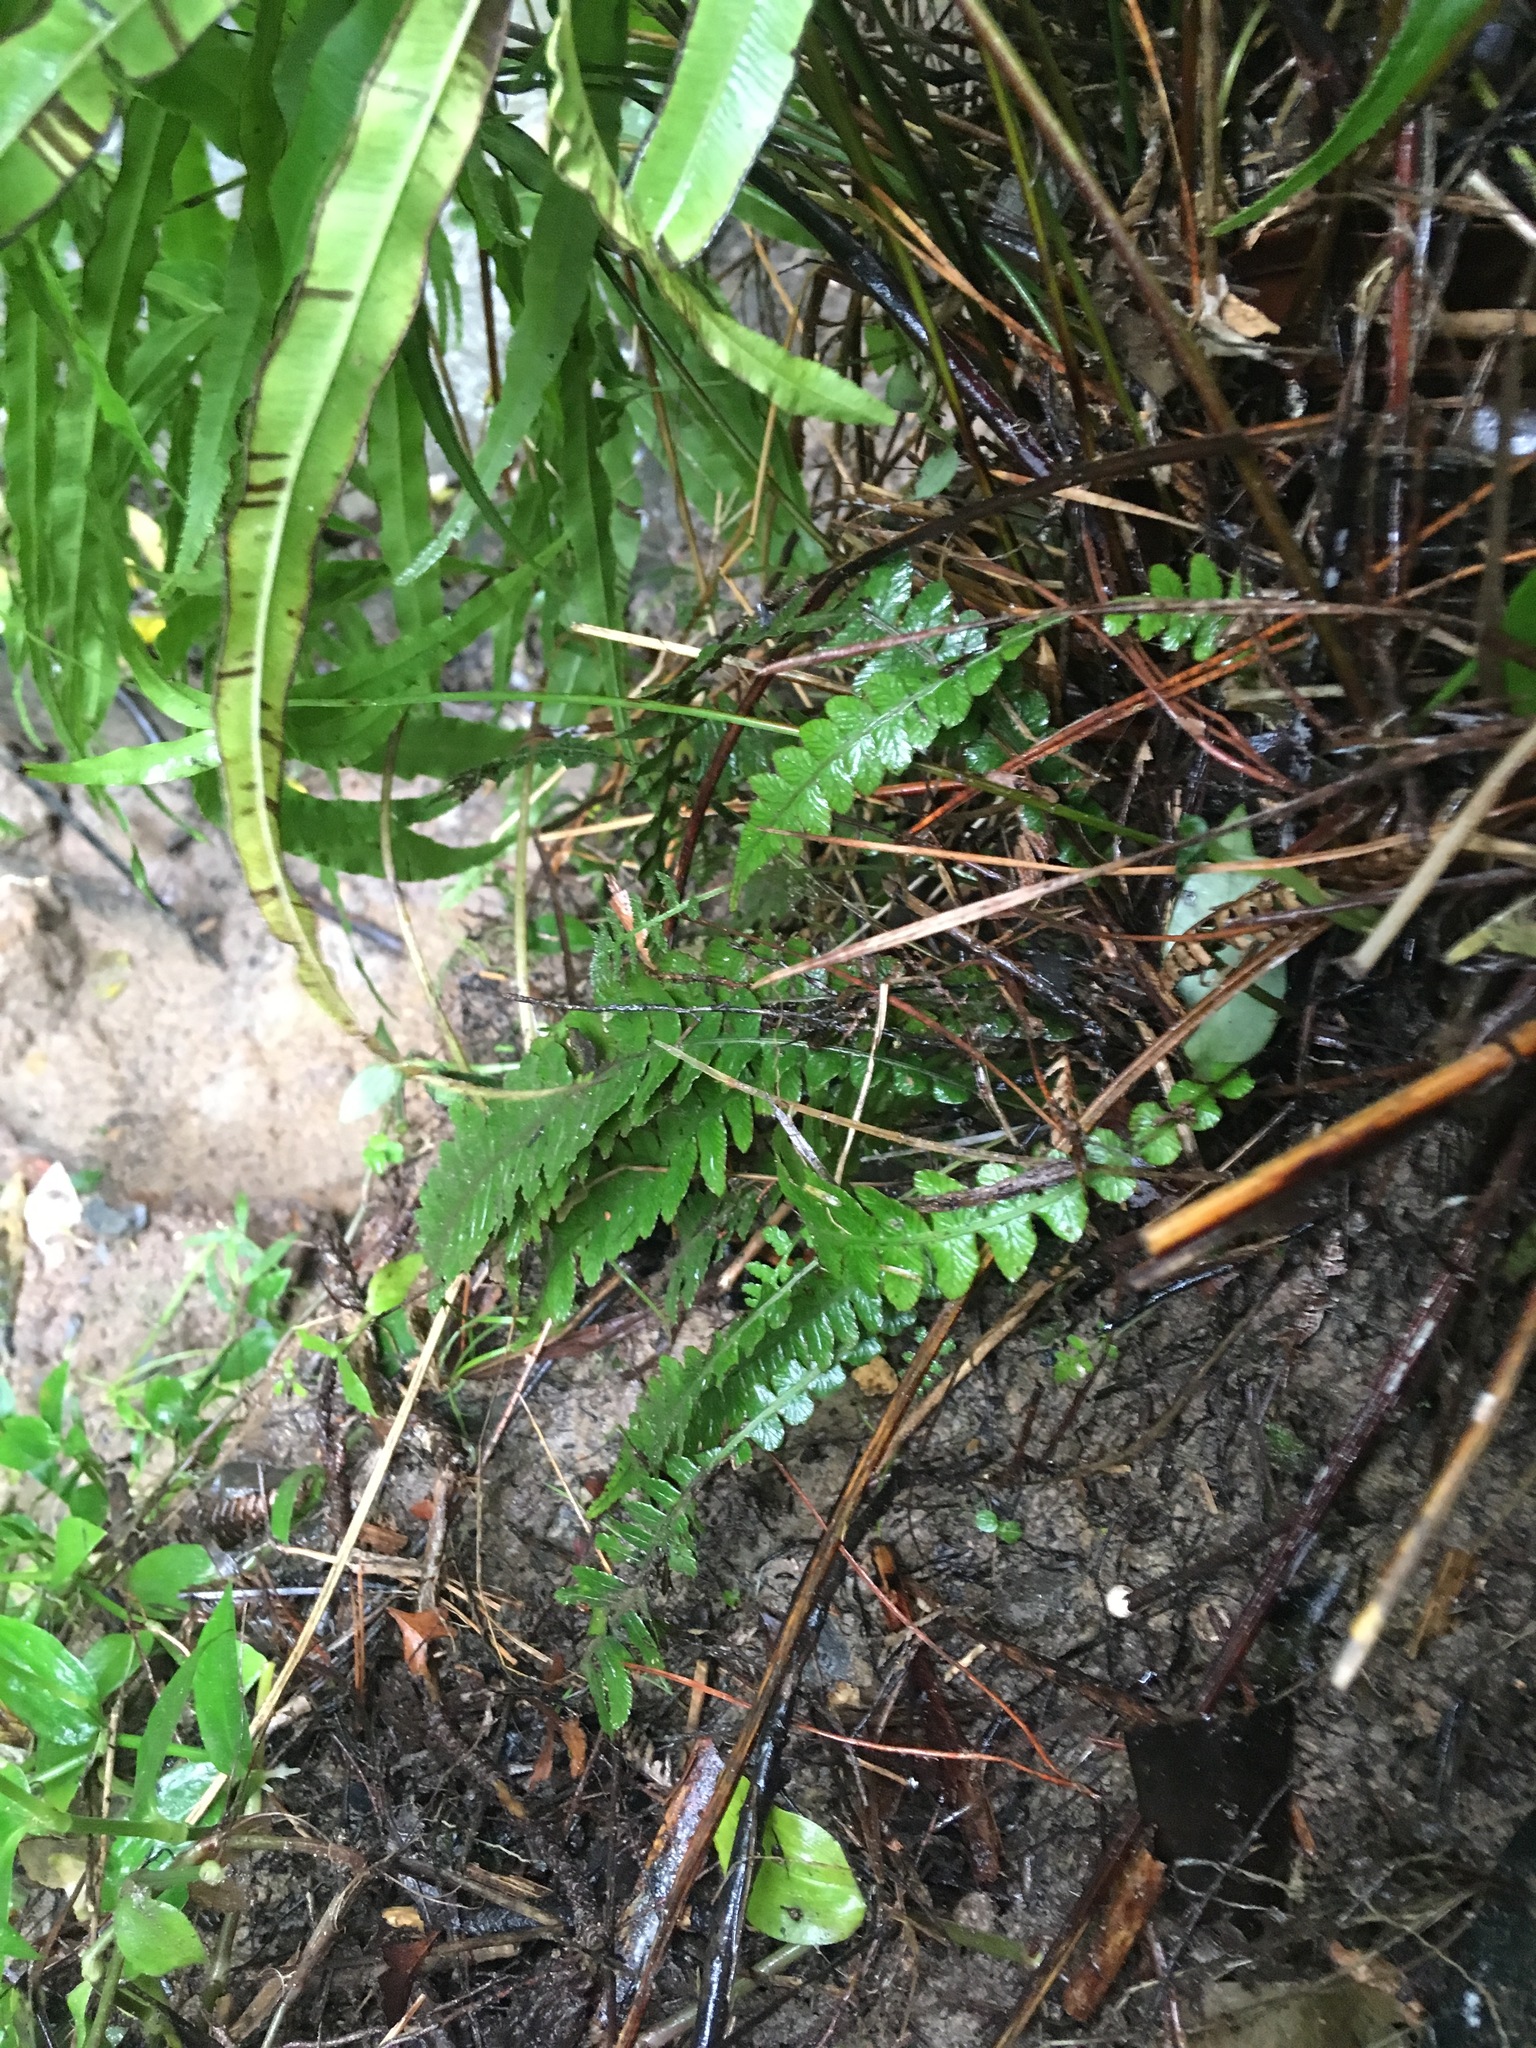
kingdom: Plantae
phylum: Tracheophyta
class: Polypodiopsida
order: Polypodiales
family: Blechnaceae
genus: Austroblechnum
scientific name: Austroblechnum lanceolatum
